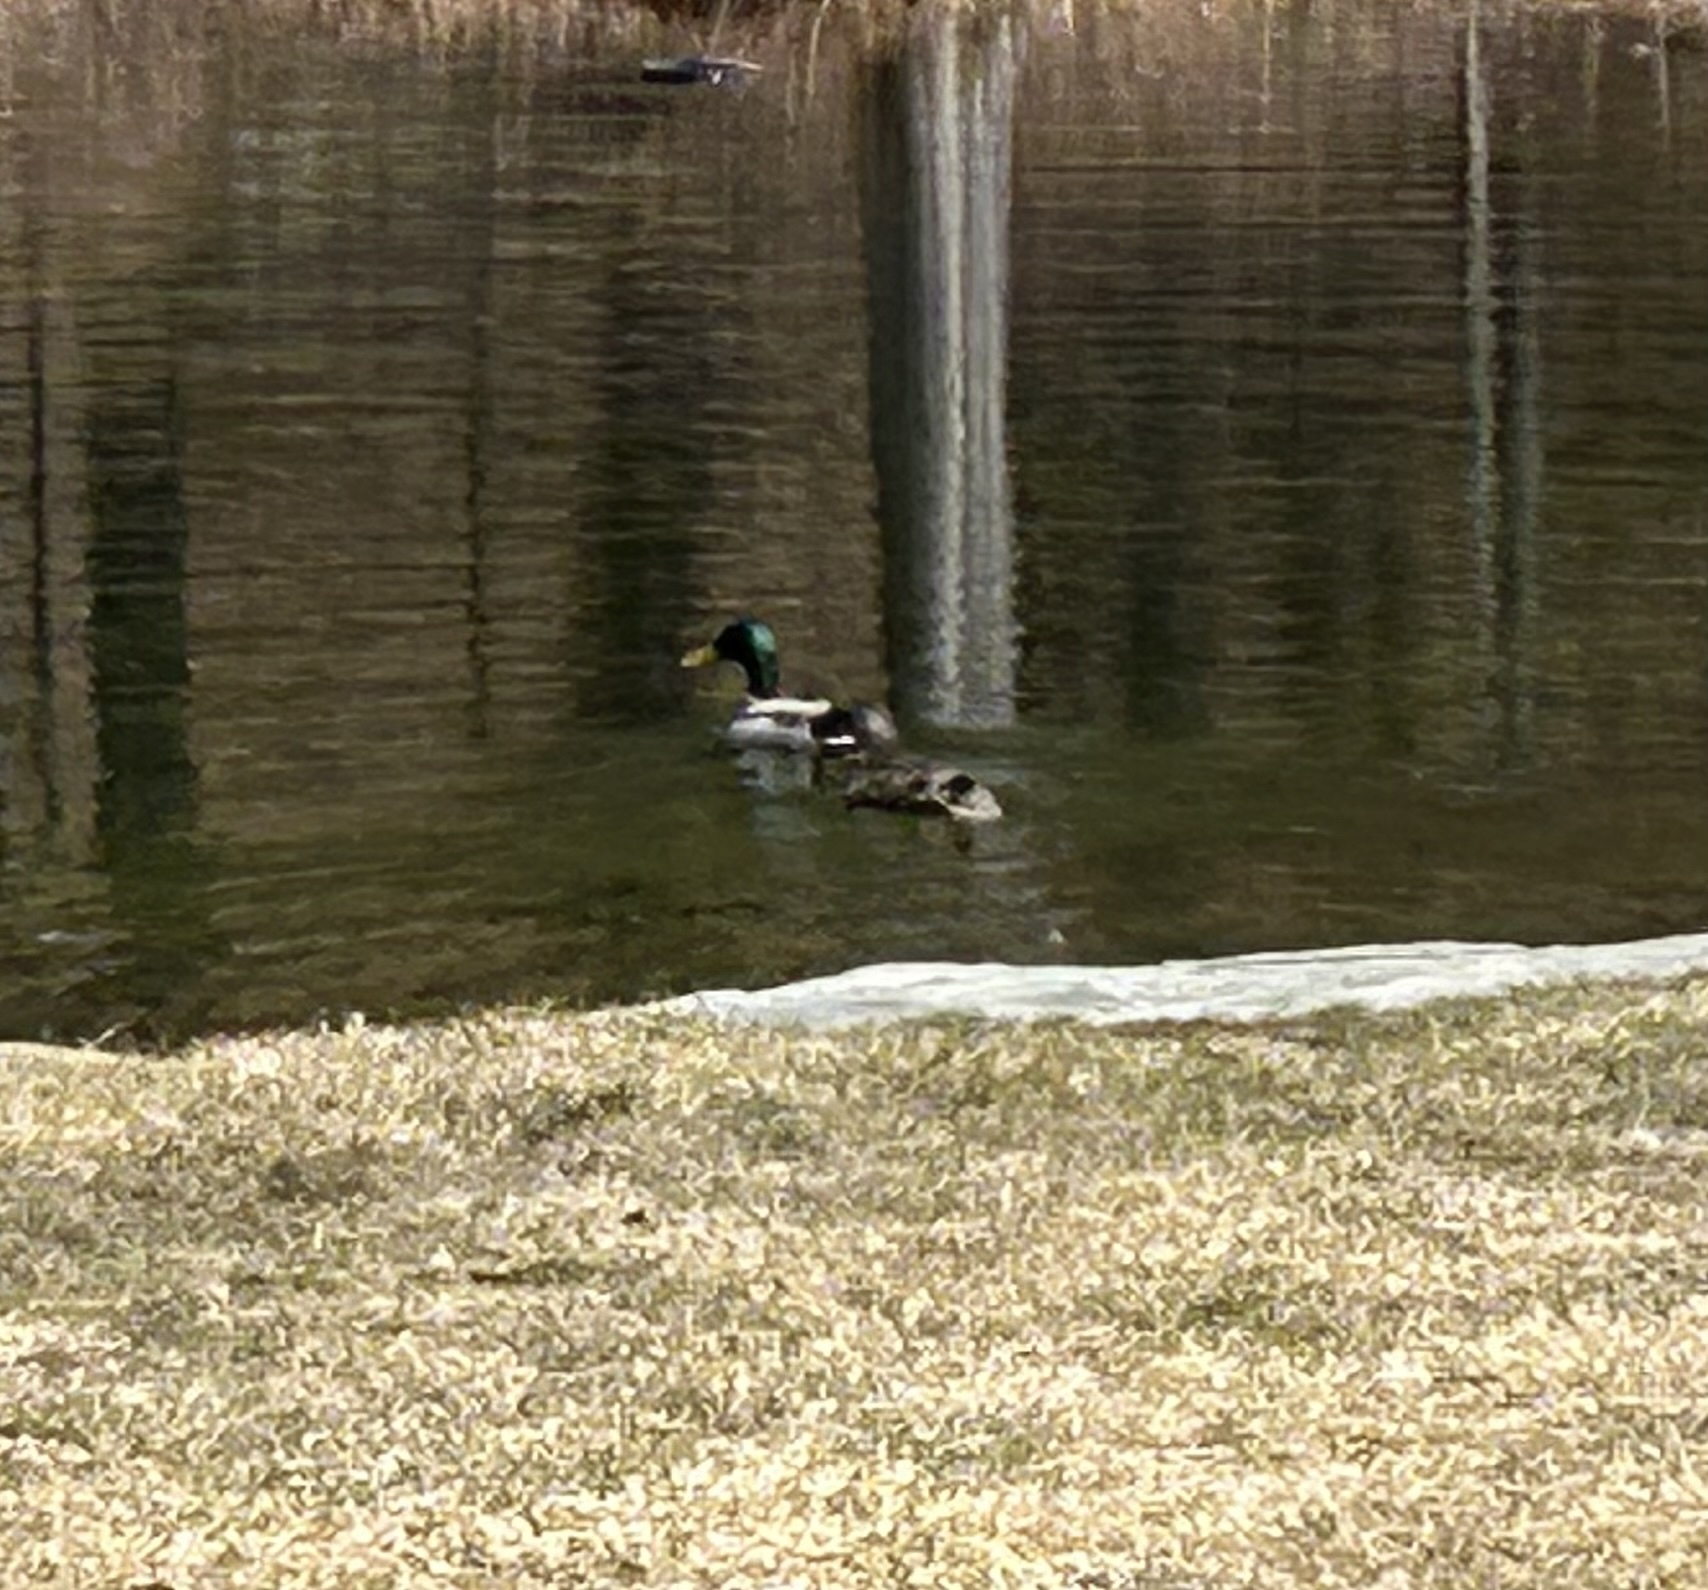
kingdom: Animalia
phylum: Chordata
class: Aves
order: Anseriformes
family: Anatidae
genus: Anas
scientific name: Anas platyrhynchos
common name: Mallard
